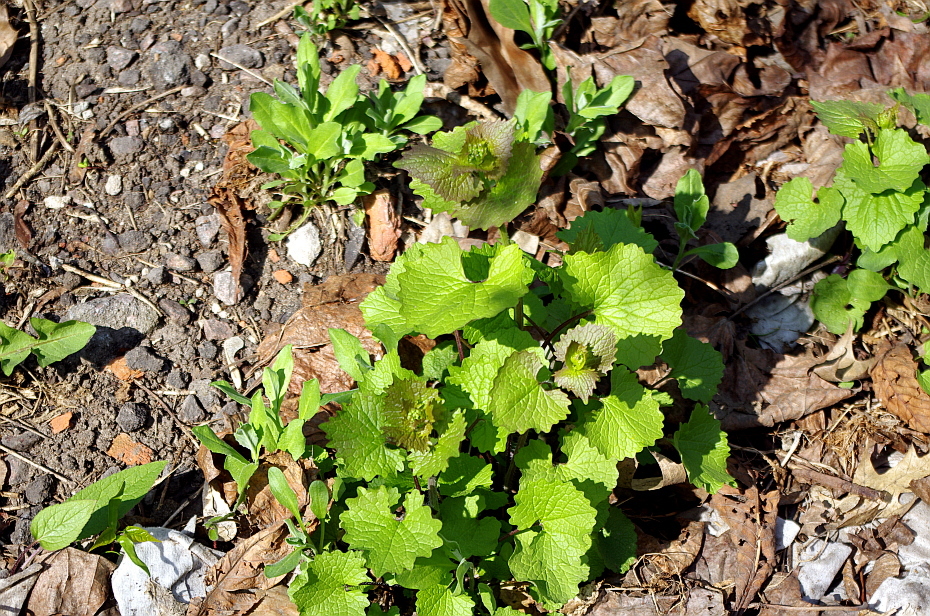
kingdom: Plantae
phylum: Tracheophyta
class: Magnoliopsida
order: Brassicales
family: Brassicaceae
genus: Alliaria
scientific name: Alliaria petiolata
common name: Garlic mustard
